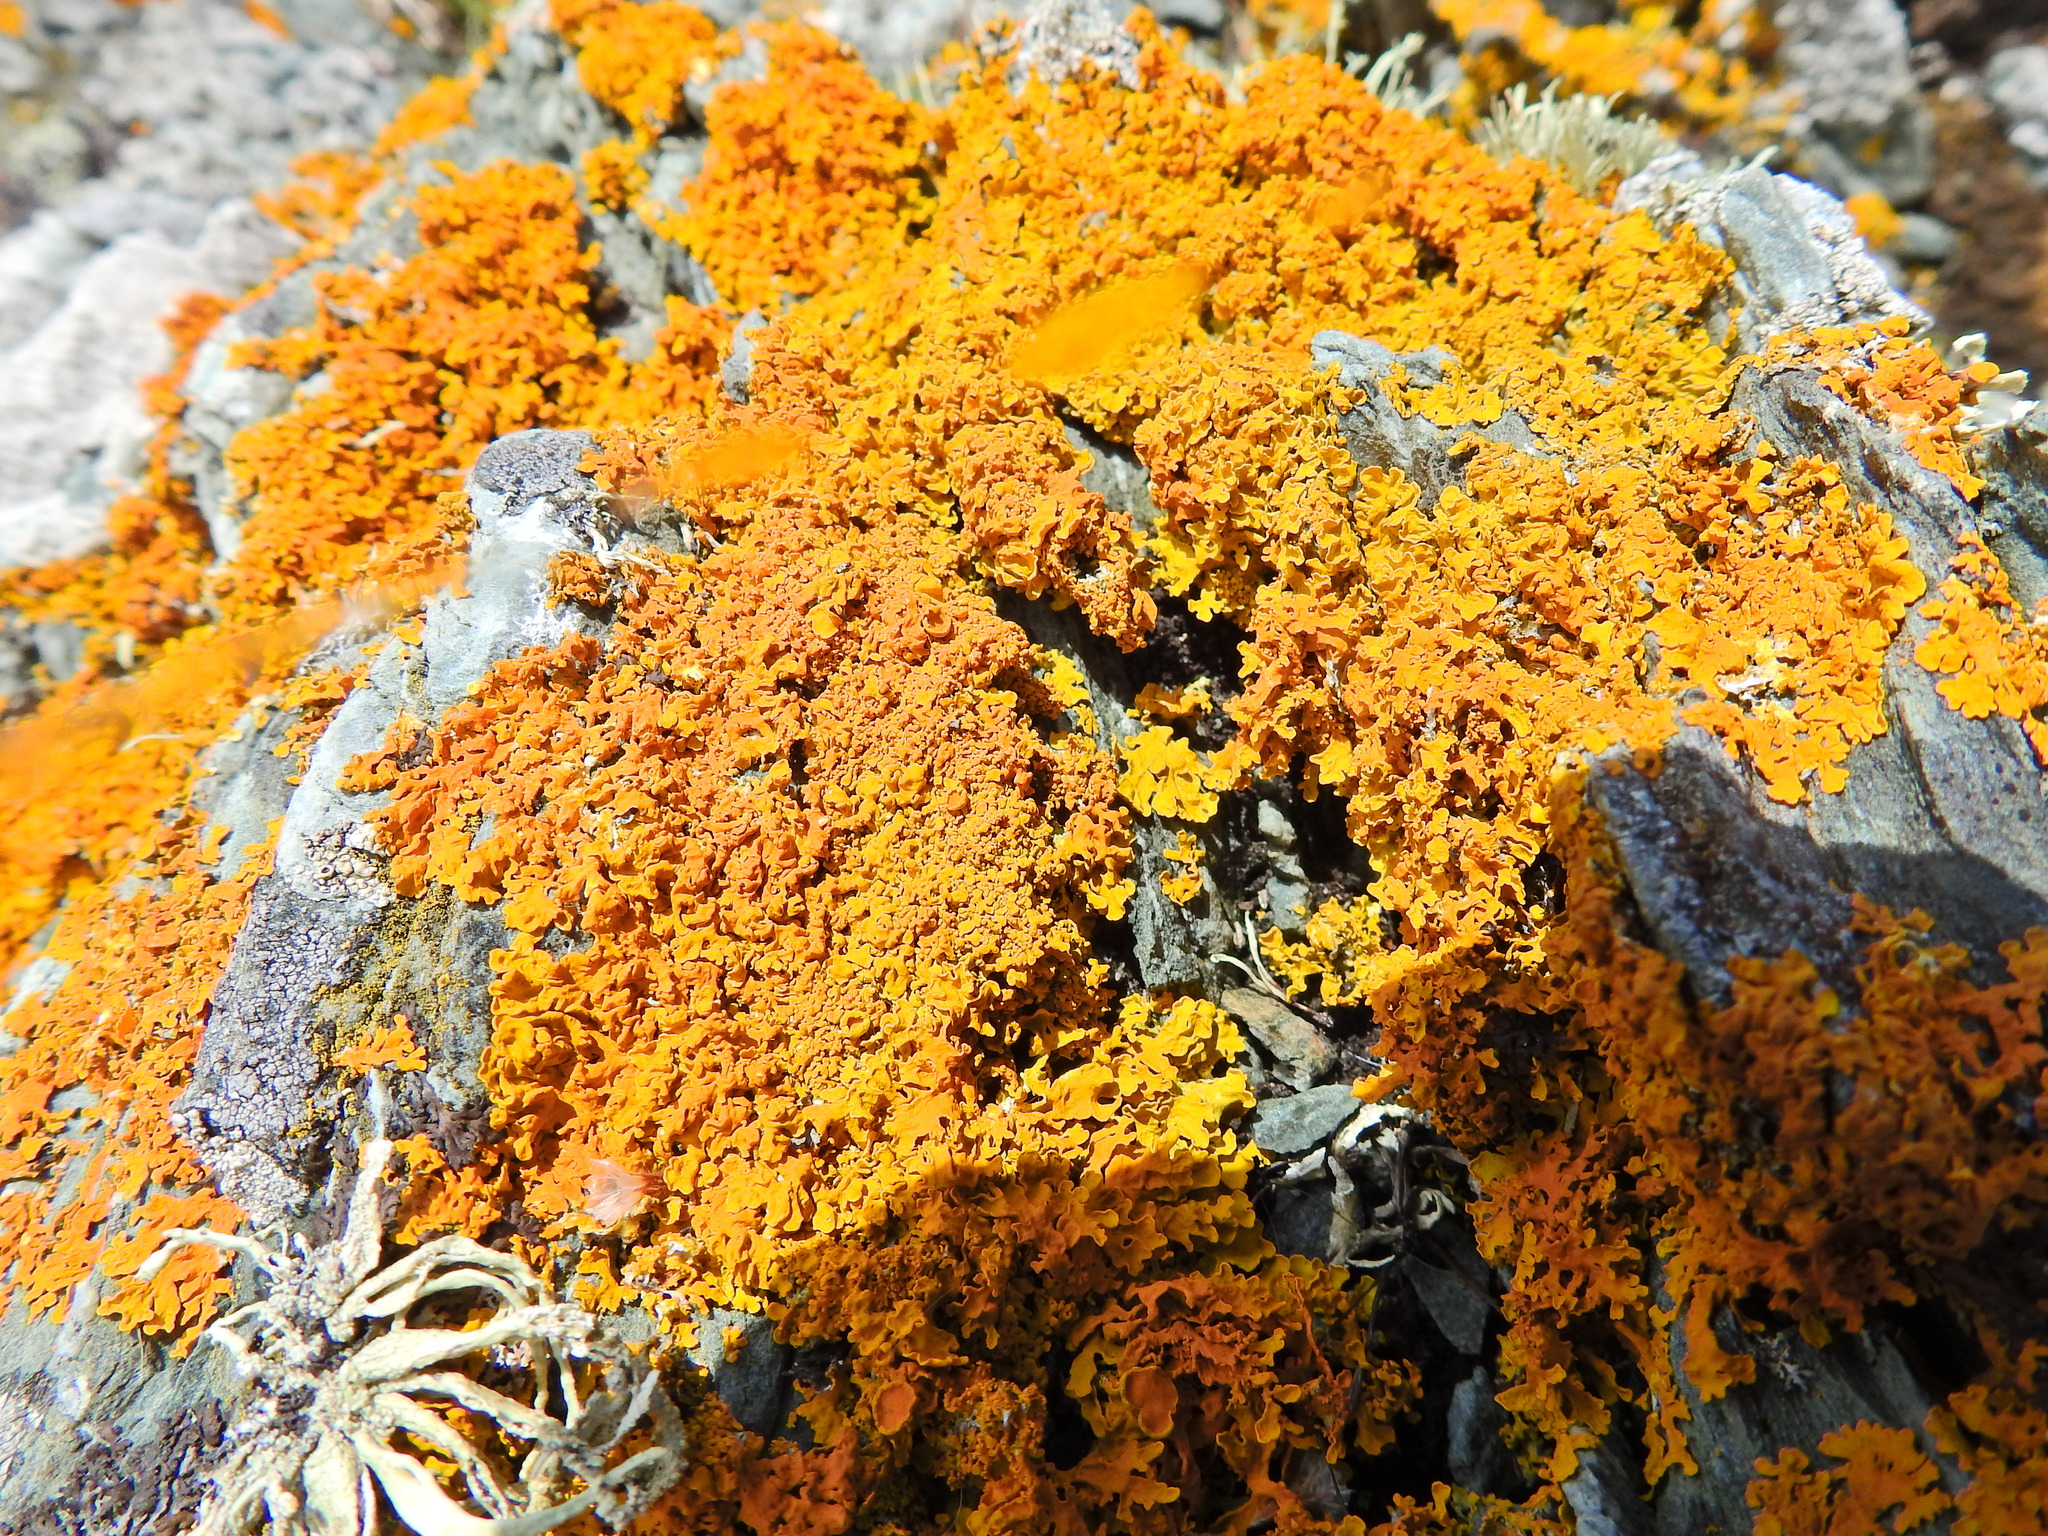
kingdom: Fungi
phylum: Ascomycota
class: Lecanoromycetes
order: Teloschistales
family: Teloschistaceae
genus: Xanthoria
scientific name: Xanthoria aureola
